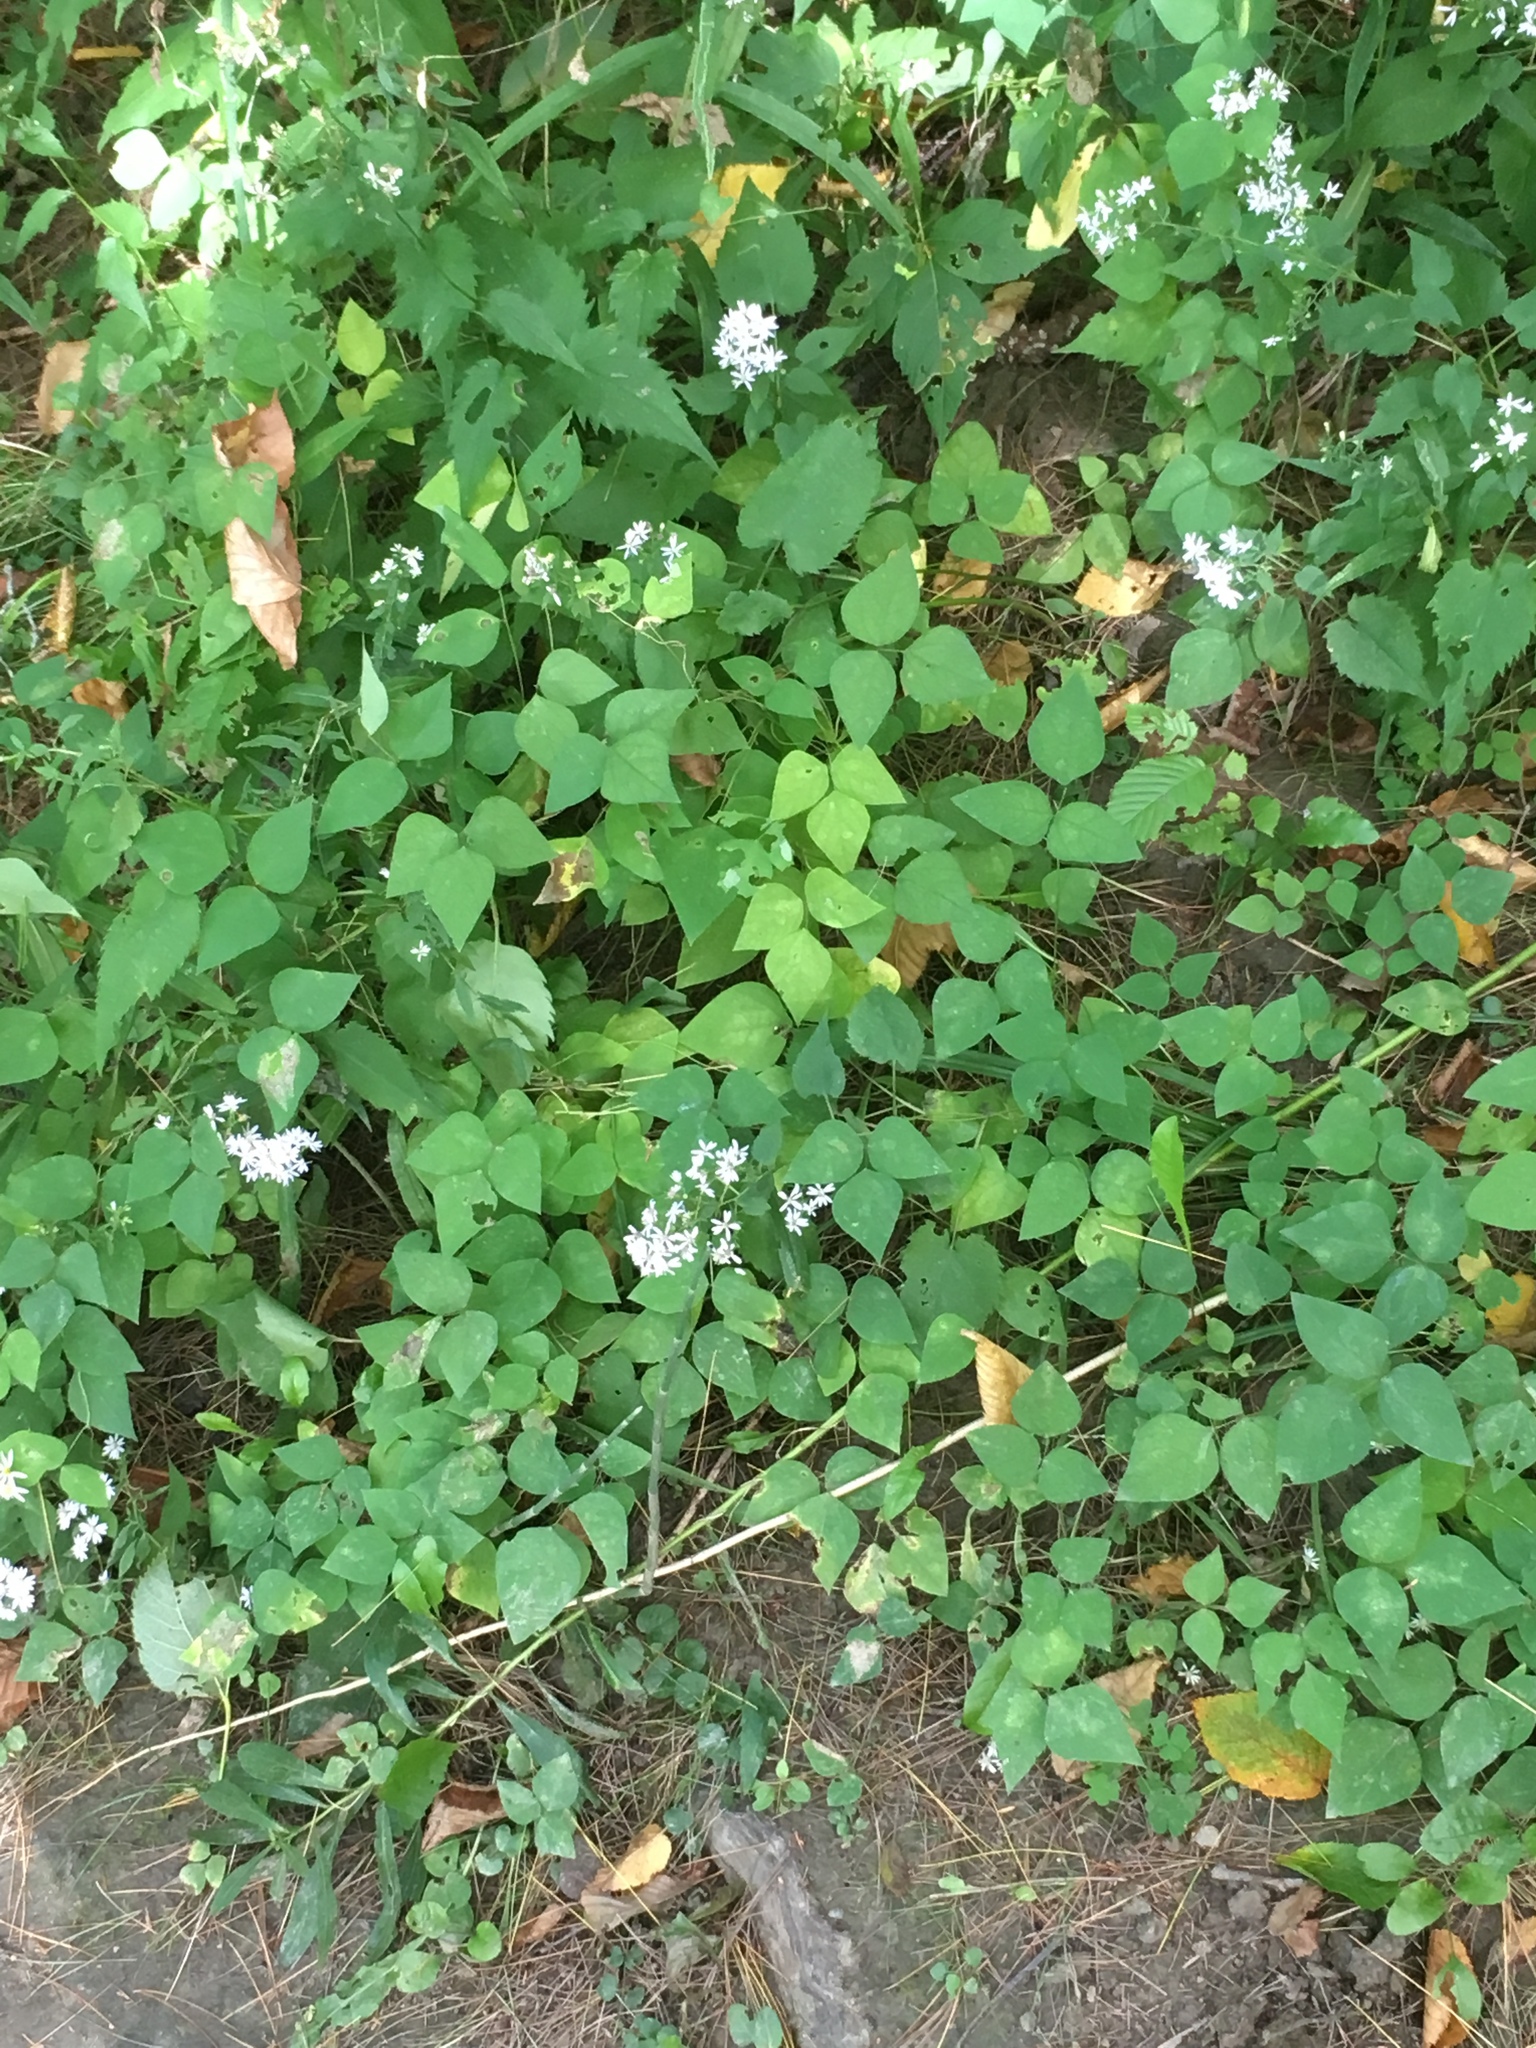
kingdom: Plantae
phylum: Tracheophyta
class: Magnoliopsida
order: Fabales
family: Fabaceae
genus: Amphicarpaea
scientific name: Amphicarpaea bracteata
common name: American hog peanut
